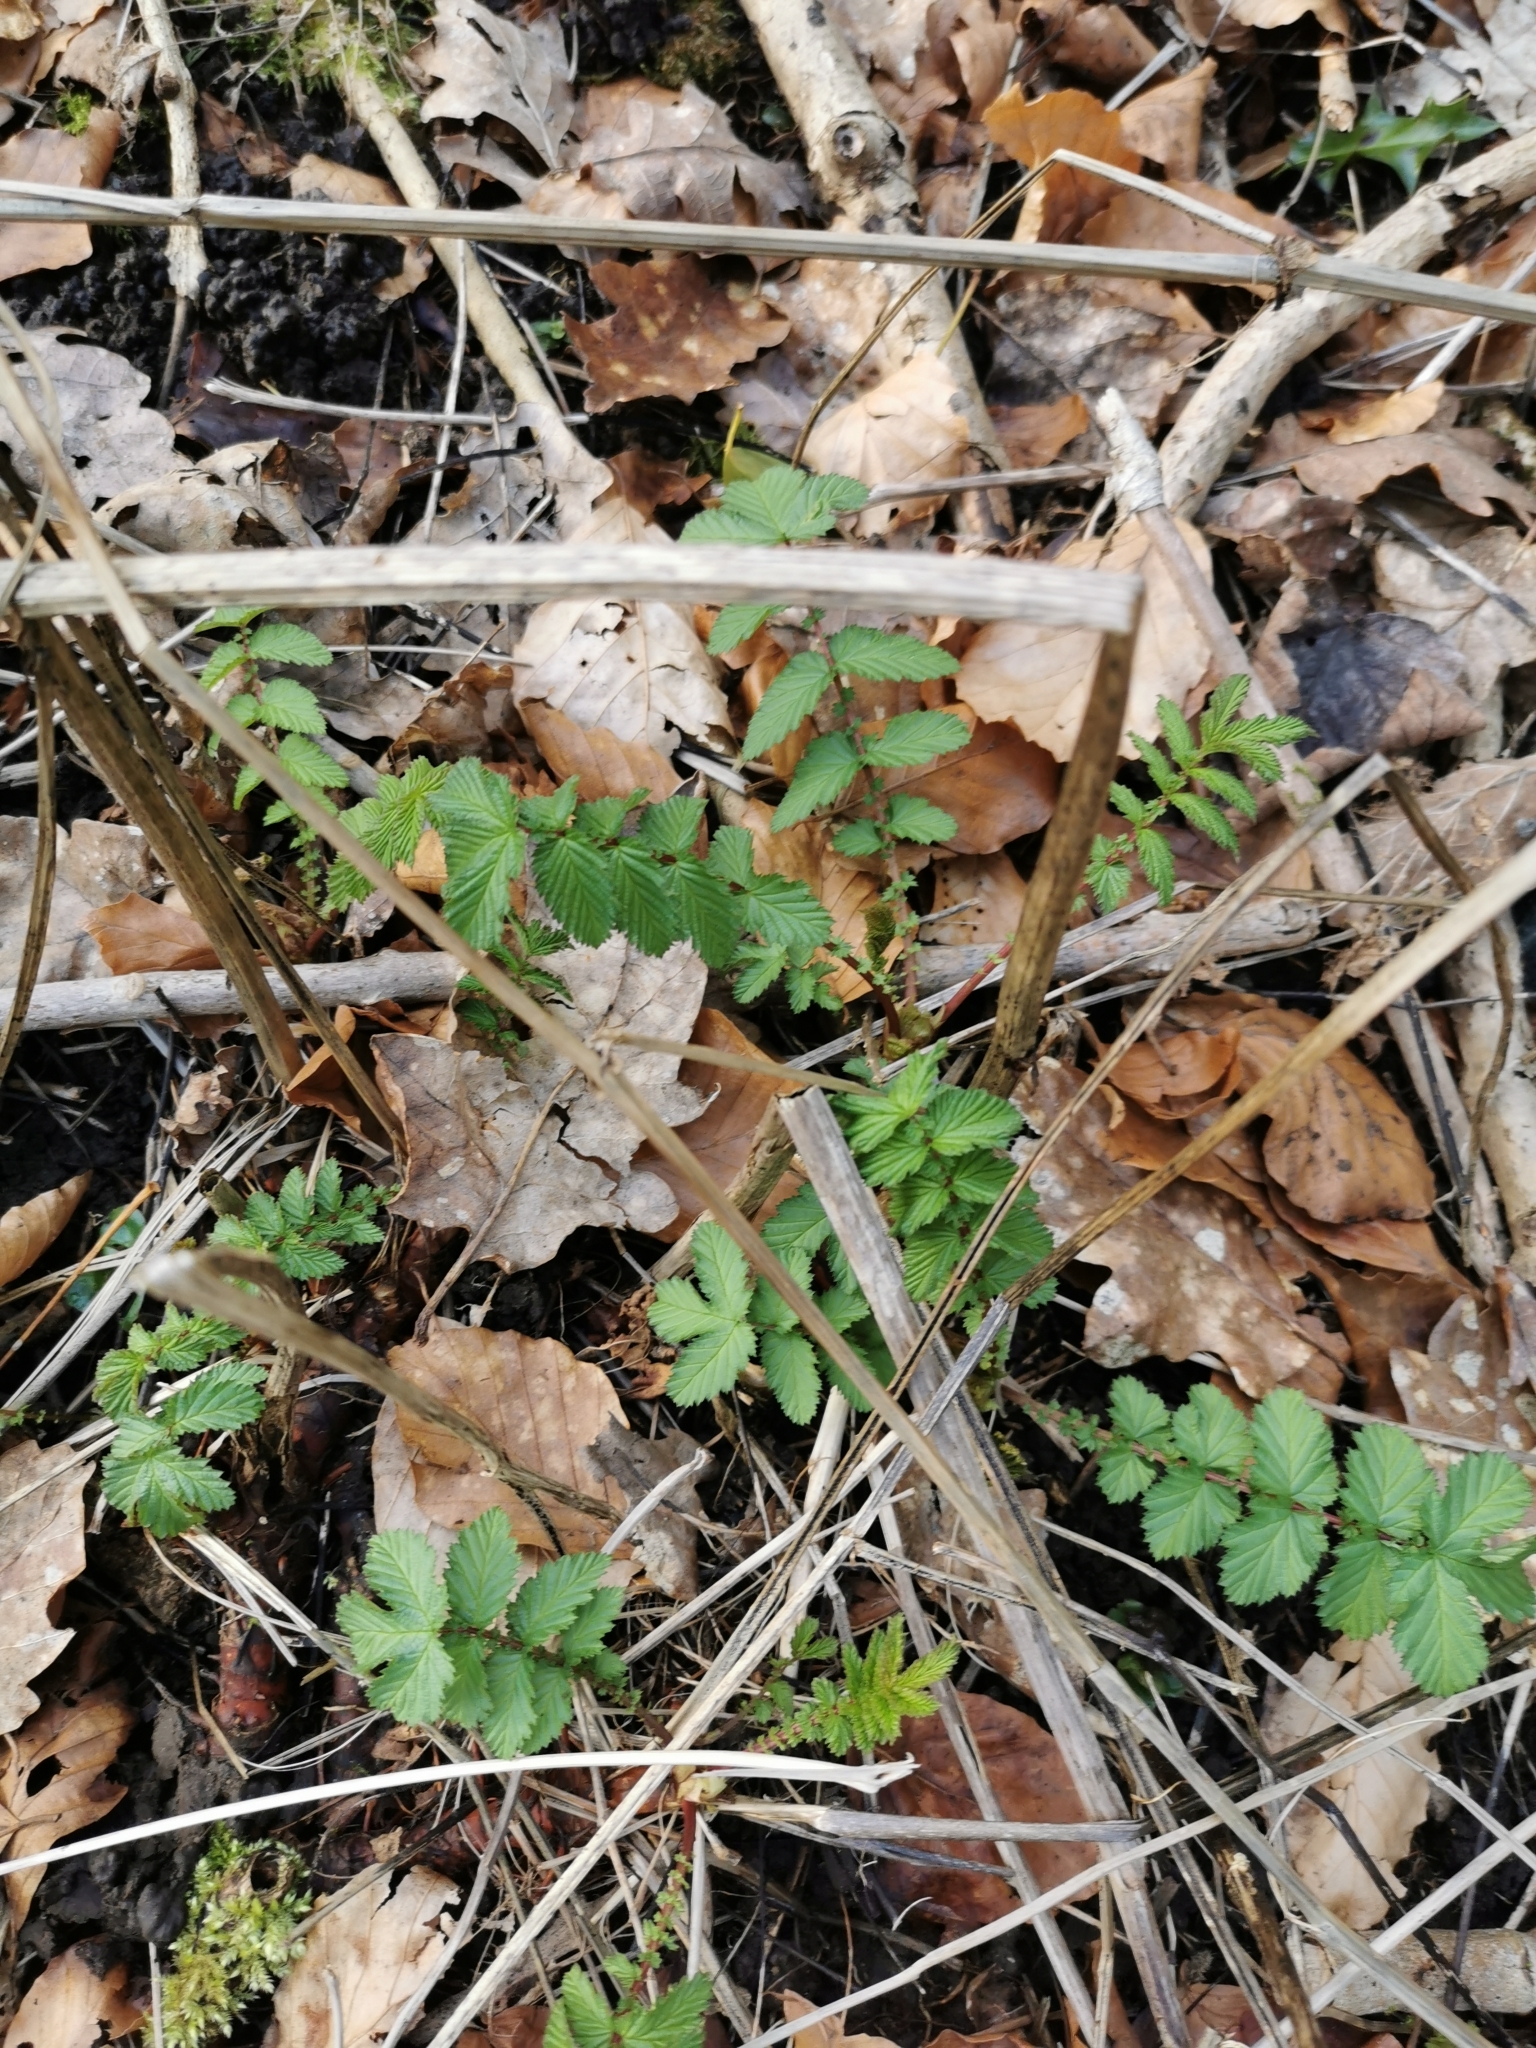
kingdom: Plantae
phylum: Tracheophyta
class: Magnoliopsida
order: Rosales
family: Rosaceae
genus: Filipendula
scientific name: Filipendula ulmaria
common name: Meadowsweet
